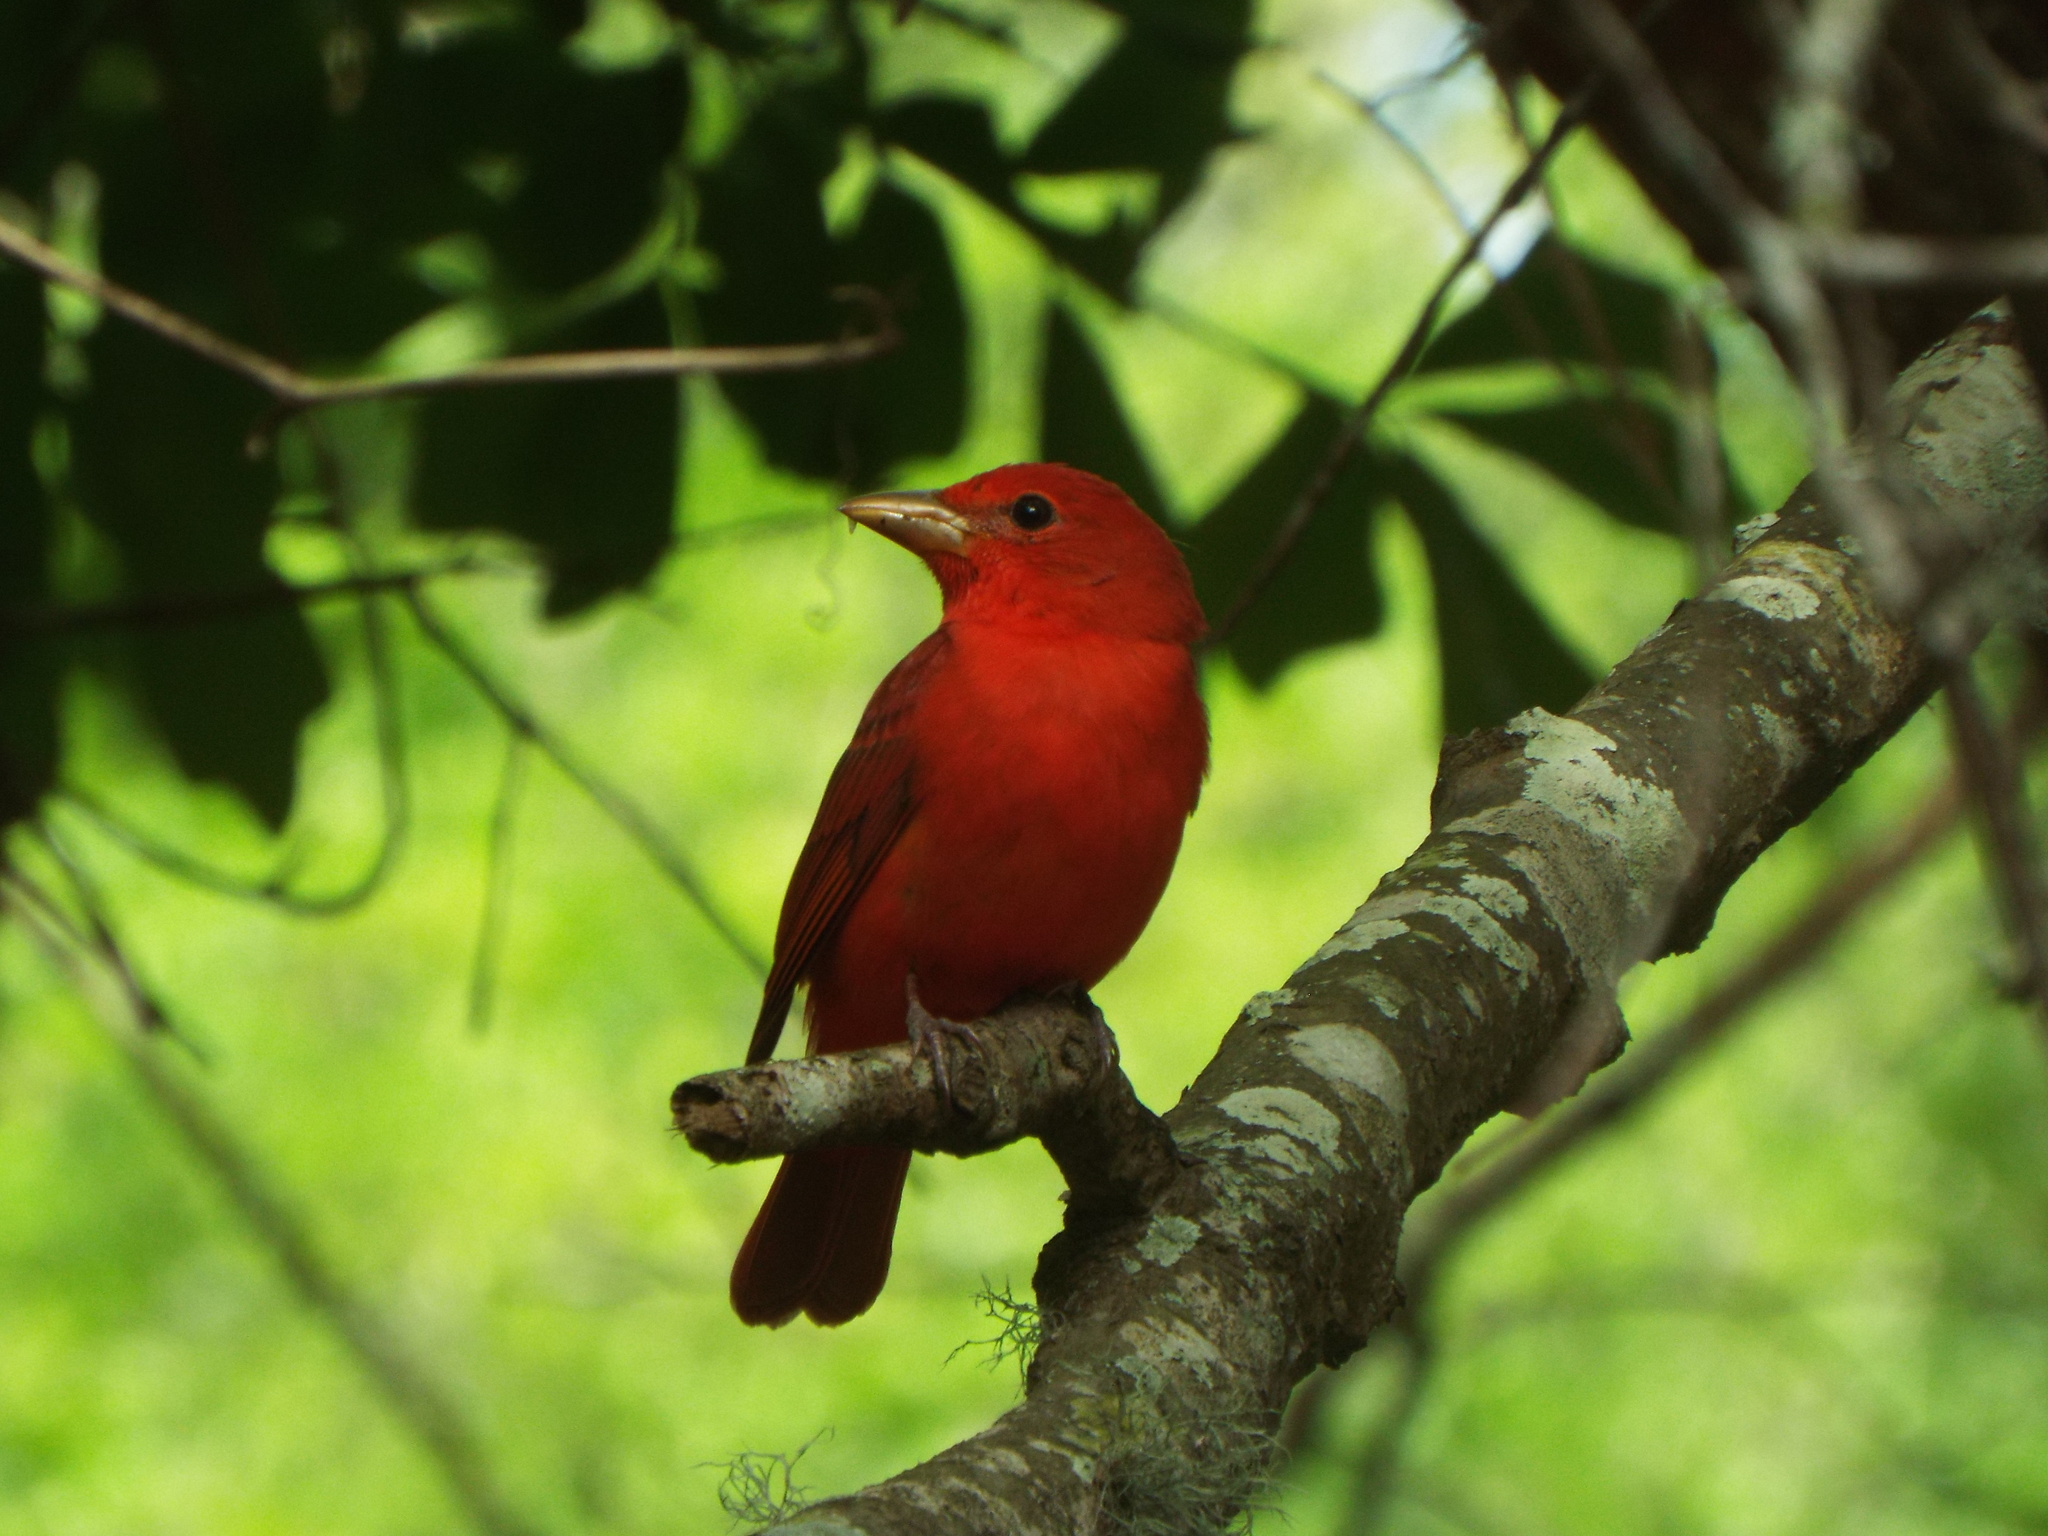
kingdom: Animalia
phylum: Chordata
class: Aves
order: Passeriformes
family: Cardinalidae
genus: Piranga
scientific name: Piranga rubra
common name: Summer tanager
